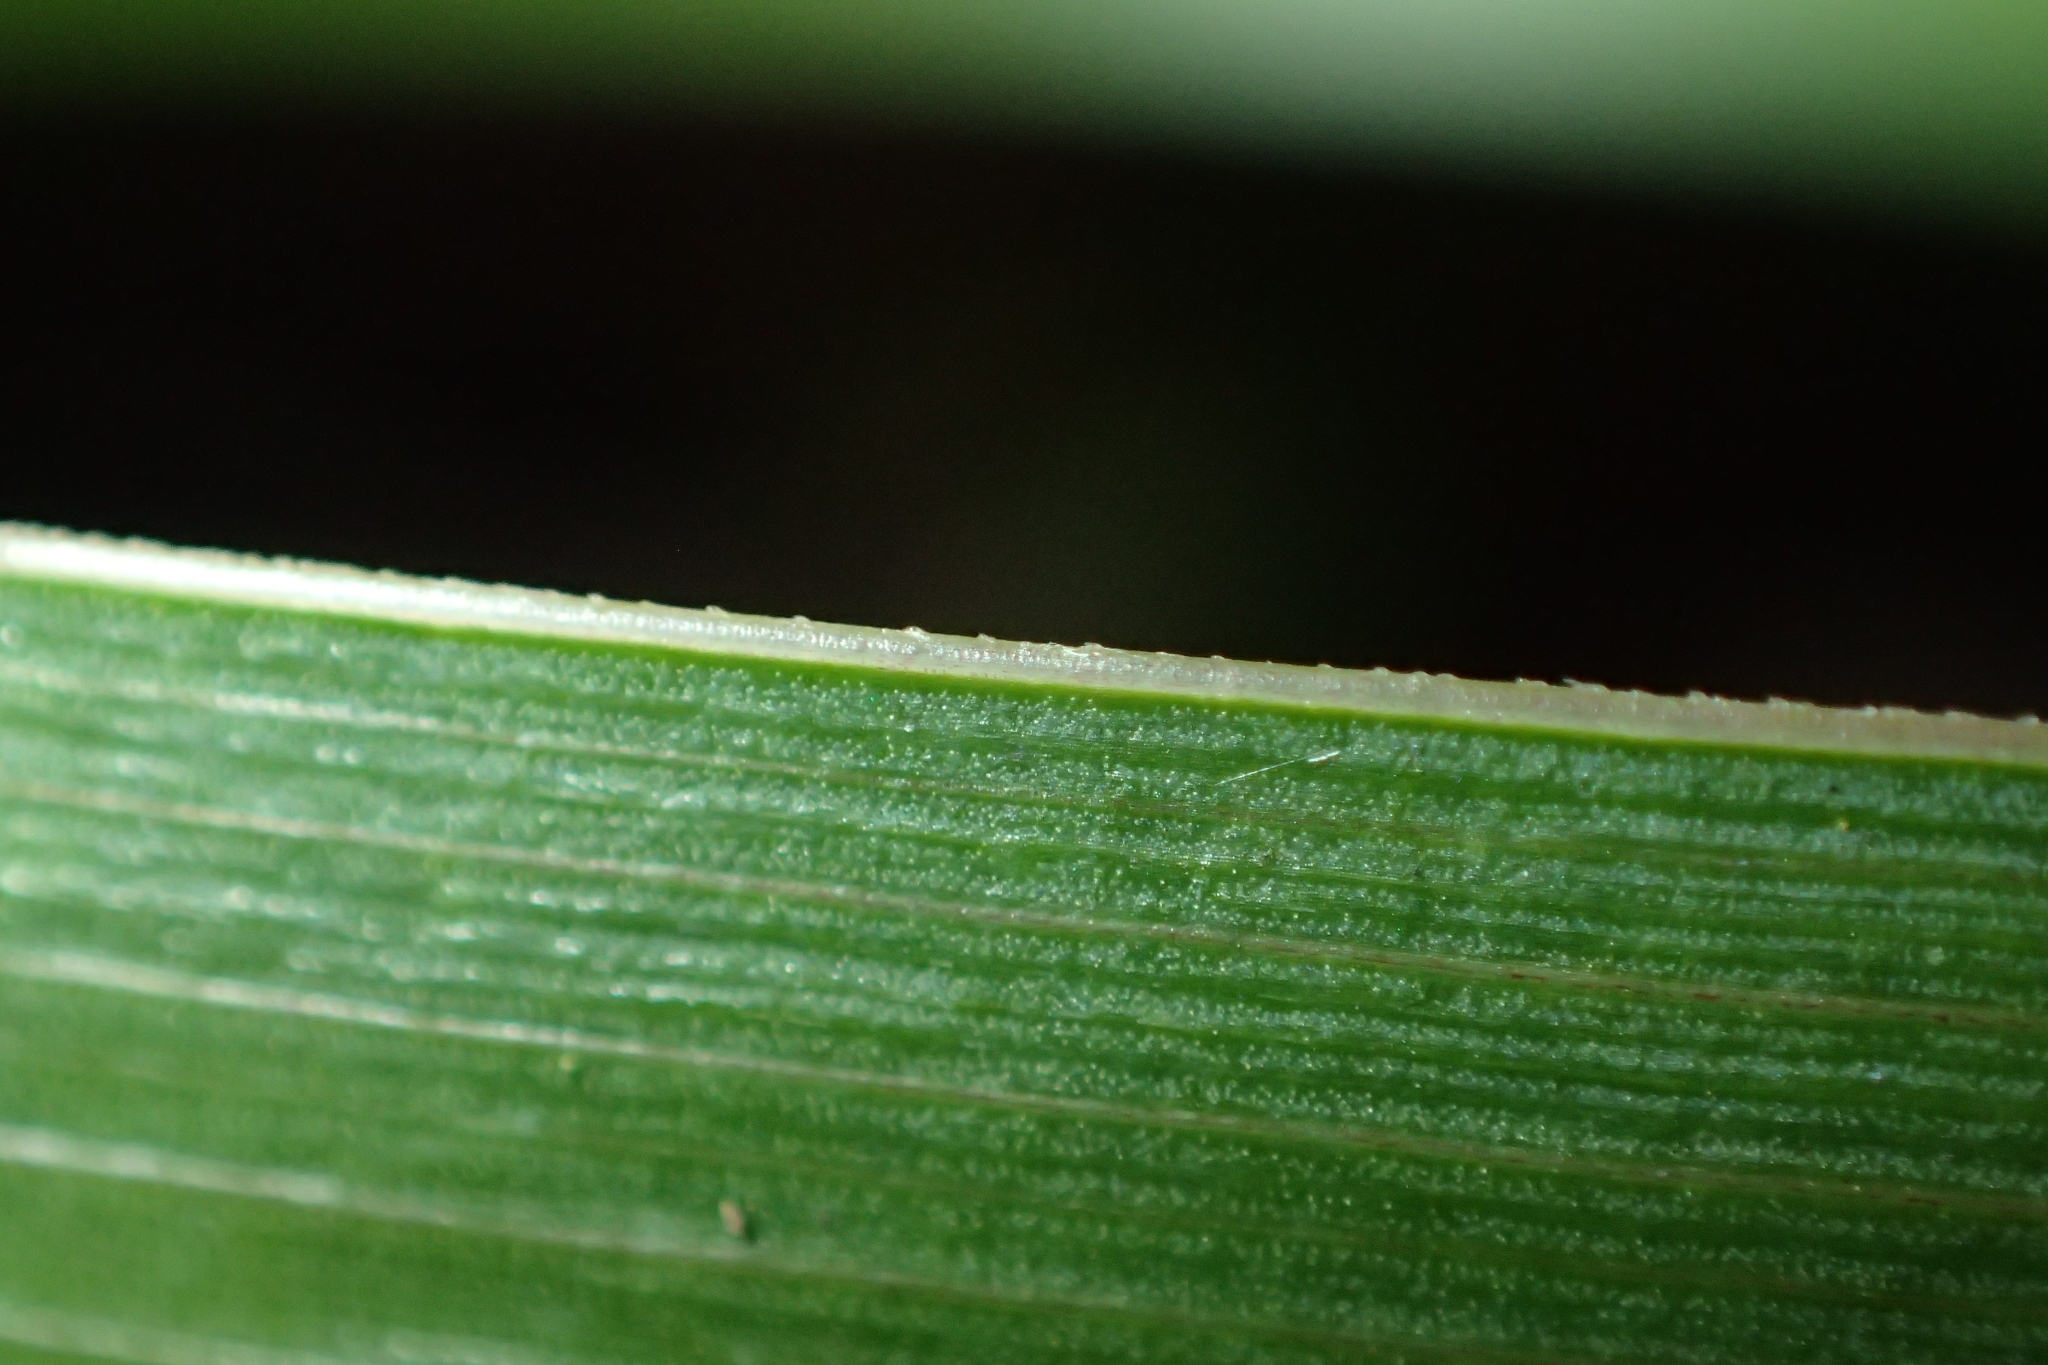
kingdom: Plantae
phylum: Tracheophyta
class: Liliopsida
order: Asparagales
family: Iridaceae
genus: Libertia
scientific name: Libertia flaccidifolia
